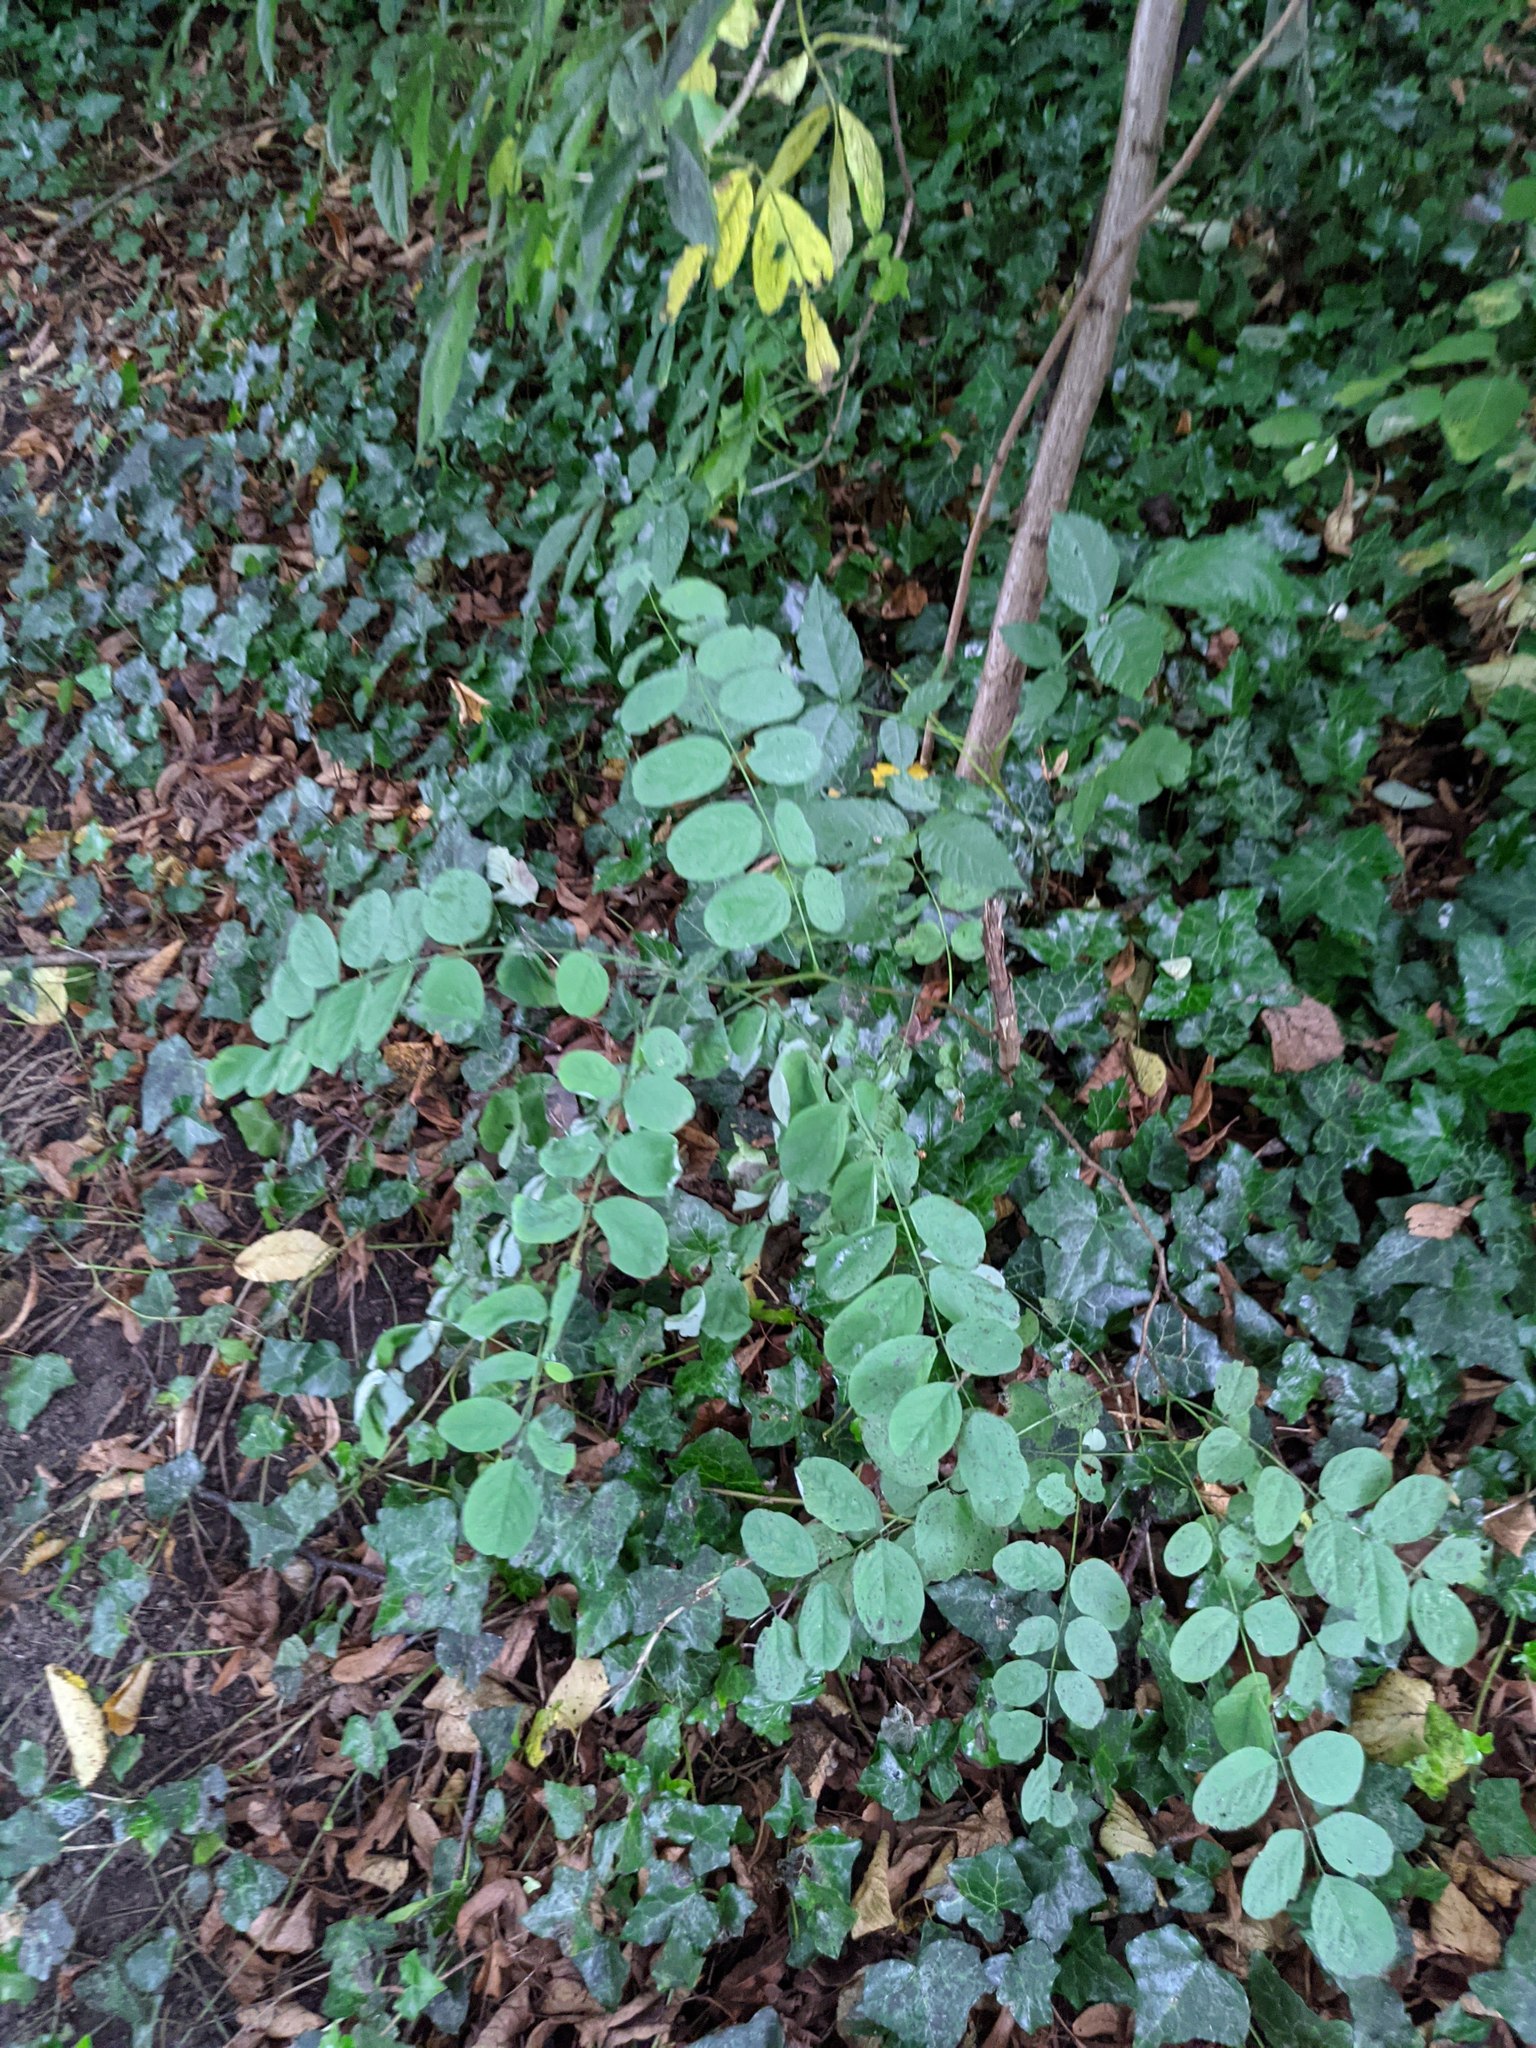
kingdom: Plantae
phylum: Tracheophyta
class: Magnoliopsida
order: Fabales
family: Fabaceae
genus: Robinia
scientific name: Robinia pseudoacacia
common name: Black locust
